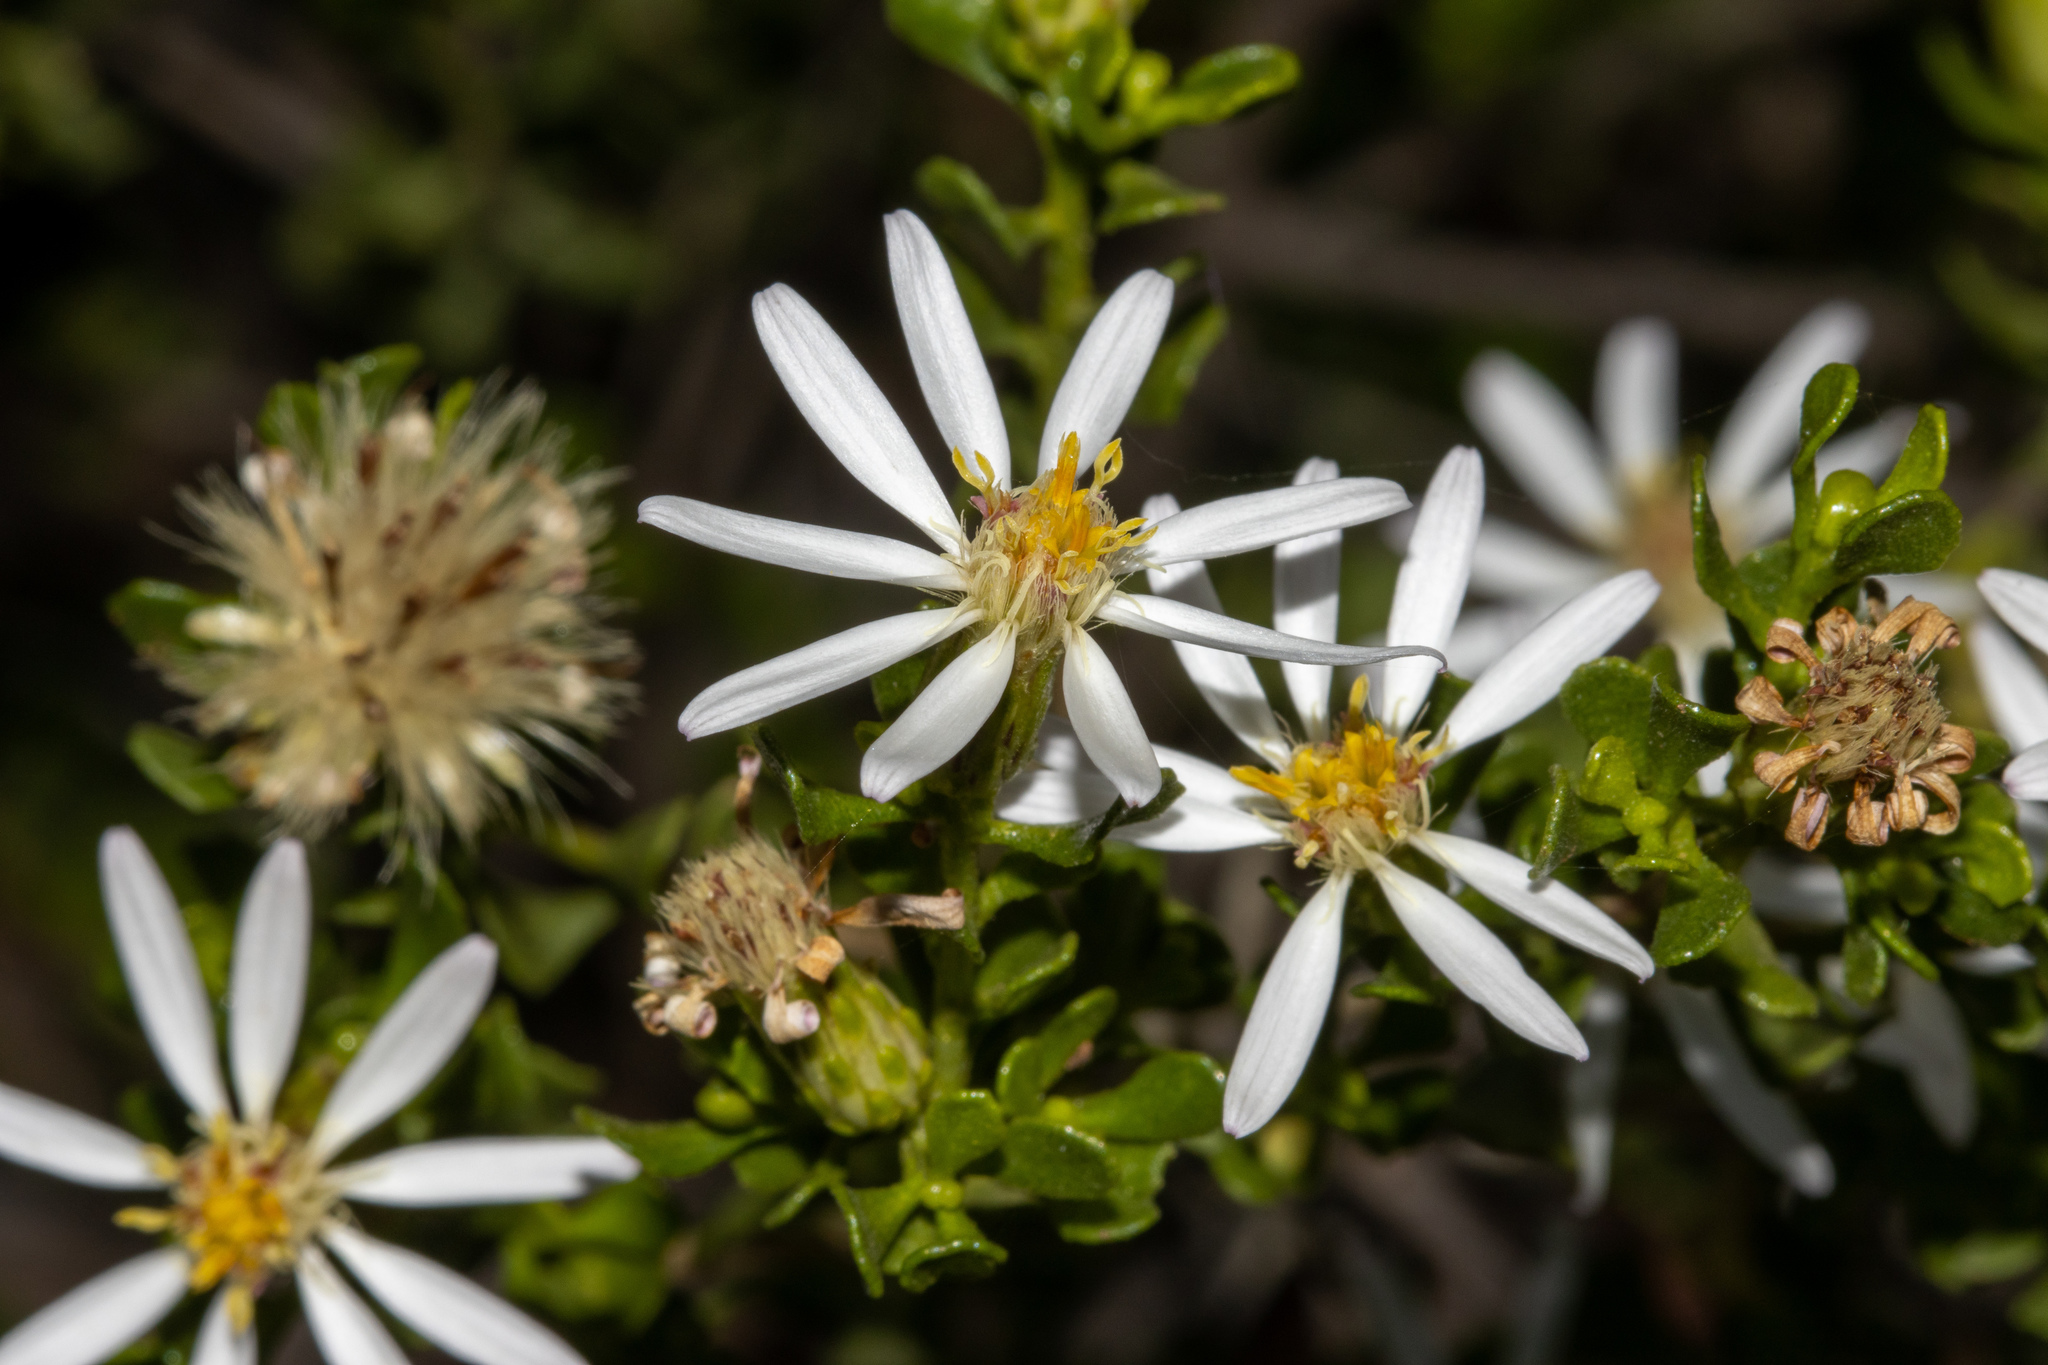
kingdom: Plantae
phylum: Tracheophyta
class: Magnoliopsida
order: Asterales
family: Asteraceae
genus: Walsholaria
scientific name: Walsholaria muelleri
